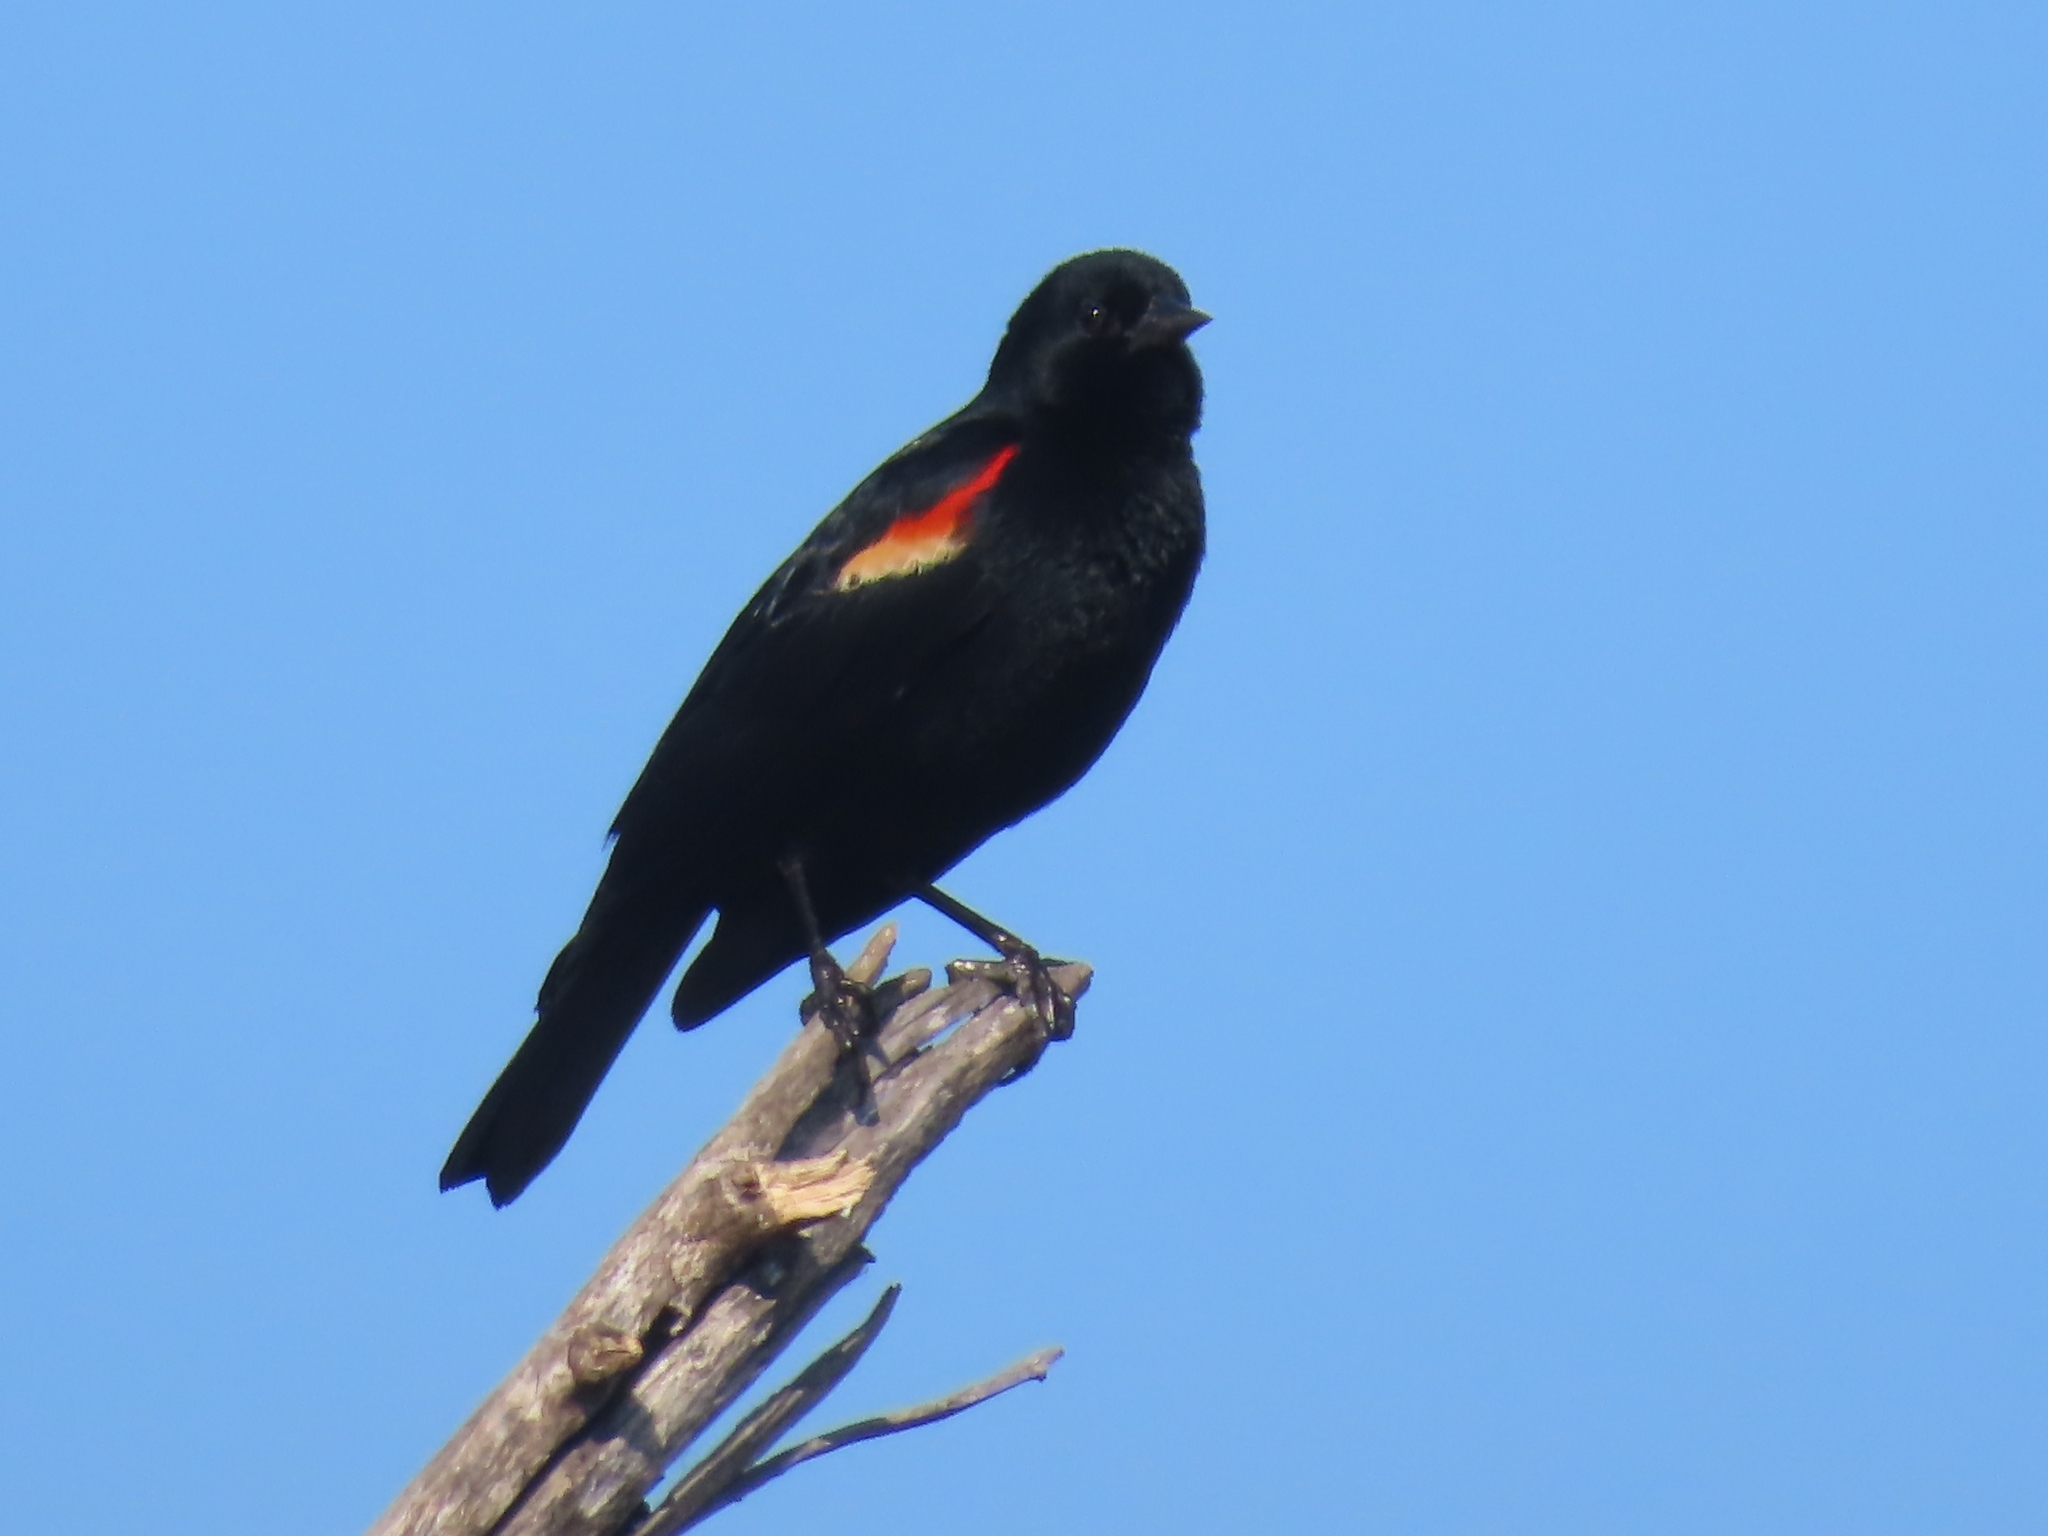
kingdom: Animalia
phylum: Chordata
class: Aves
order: Passeriformes
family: Icteridae
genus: Agelaius
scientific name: Agelaius phoeniceus
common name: Red-winged blackbird
